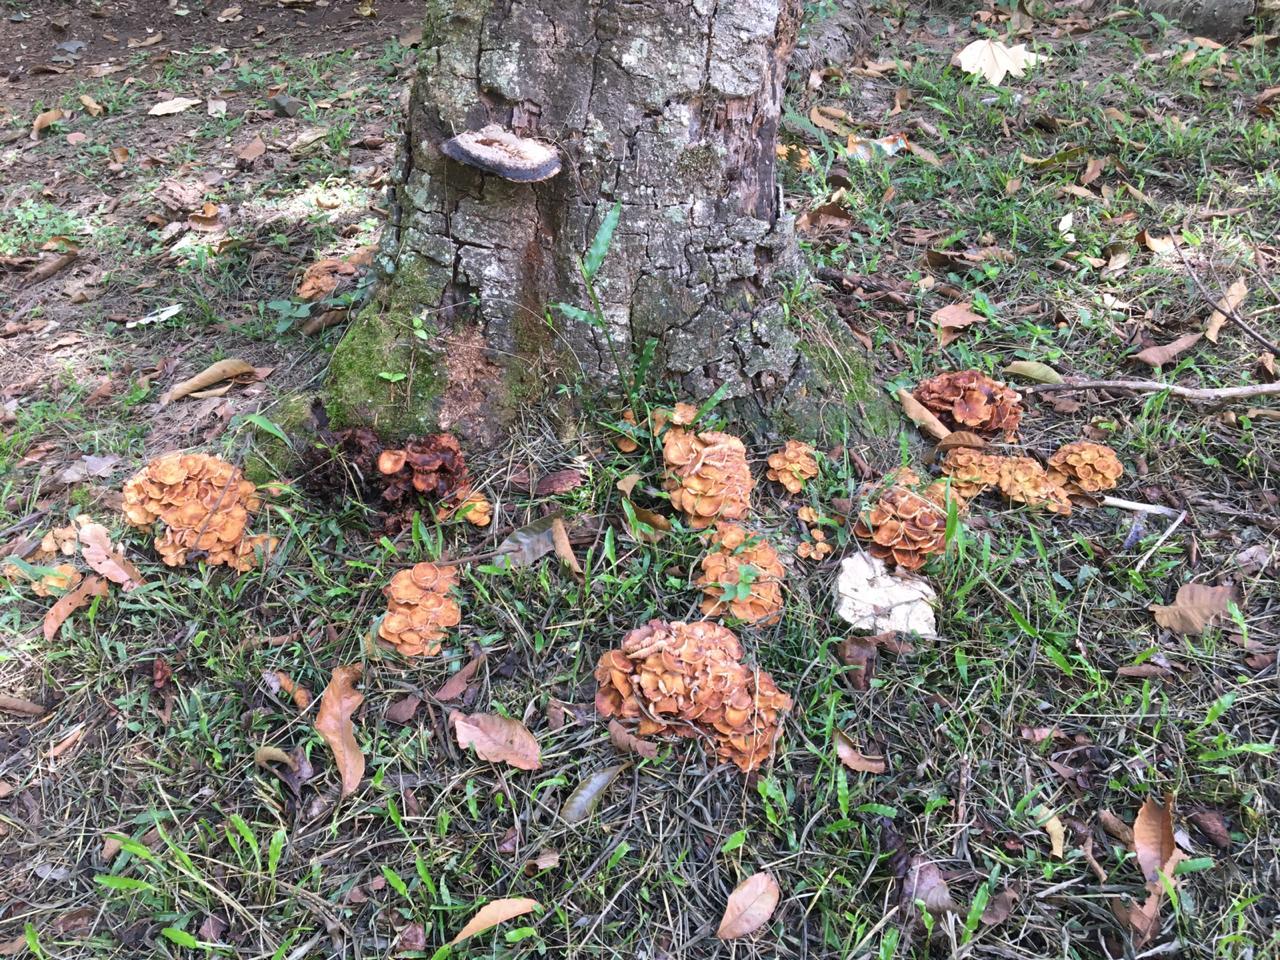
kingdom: Fungi
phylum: Basidiomycota
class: Agaricomycetes
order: Agaricales
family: Physalacriaceae
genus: Desarmillaria
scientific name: Desarmillaria caespitosa
